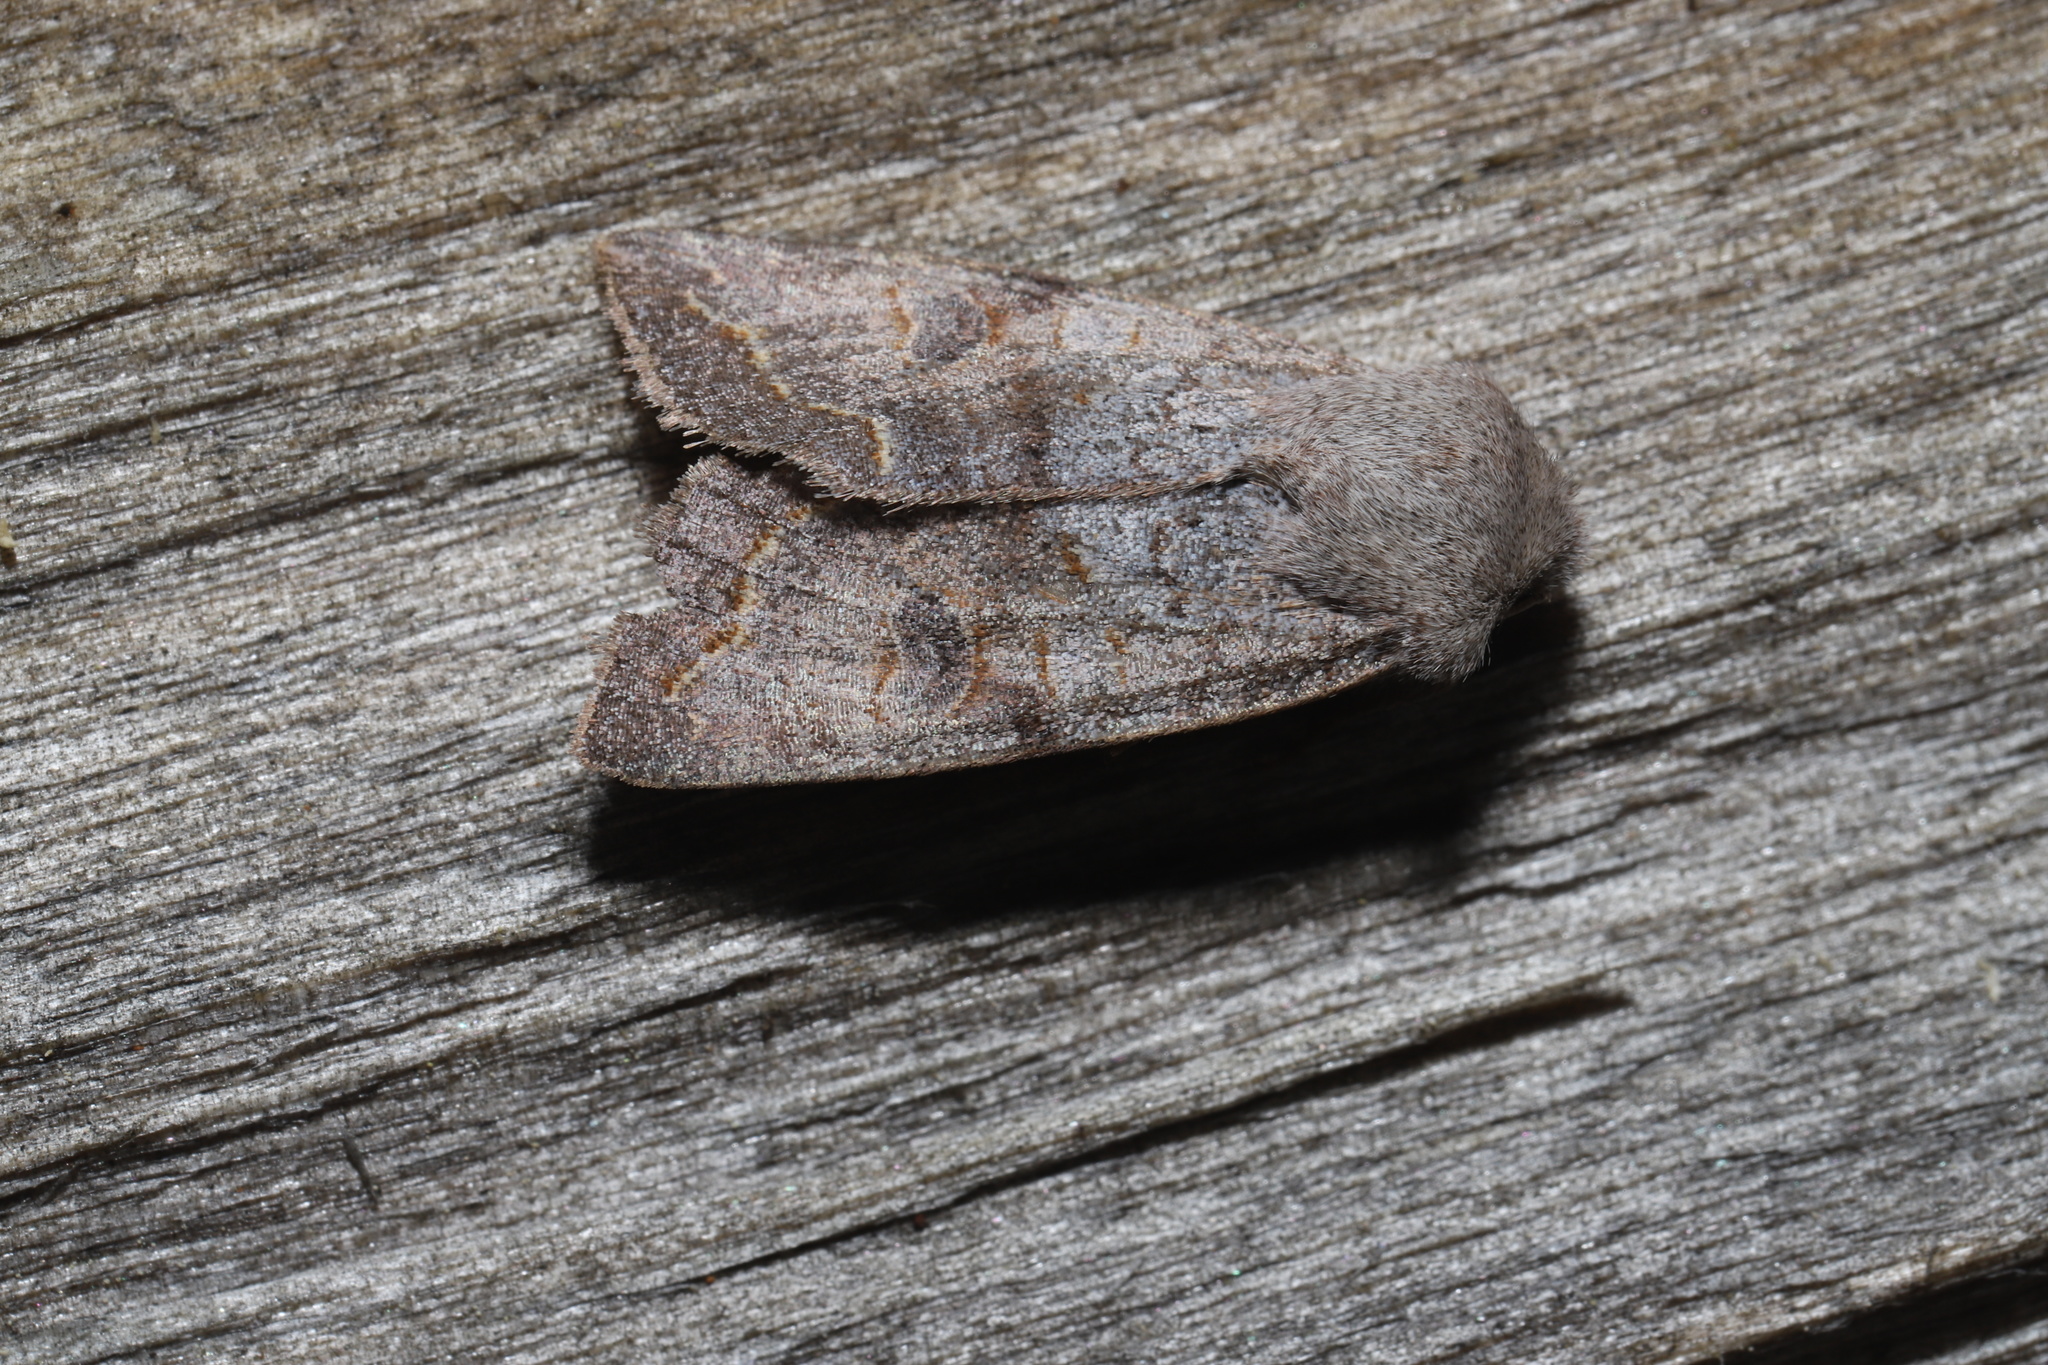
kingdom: Animalia
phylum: Arthropoda
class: Insecta
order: Lepidoptera
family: Noctuidae
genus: Orthosia
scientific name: Orthosia revicta
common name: Rusty whitesided caterpillar
